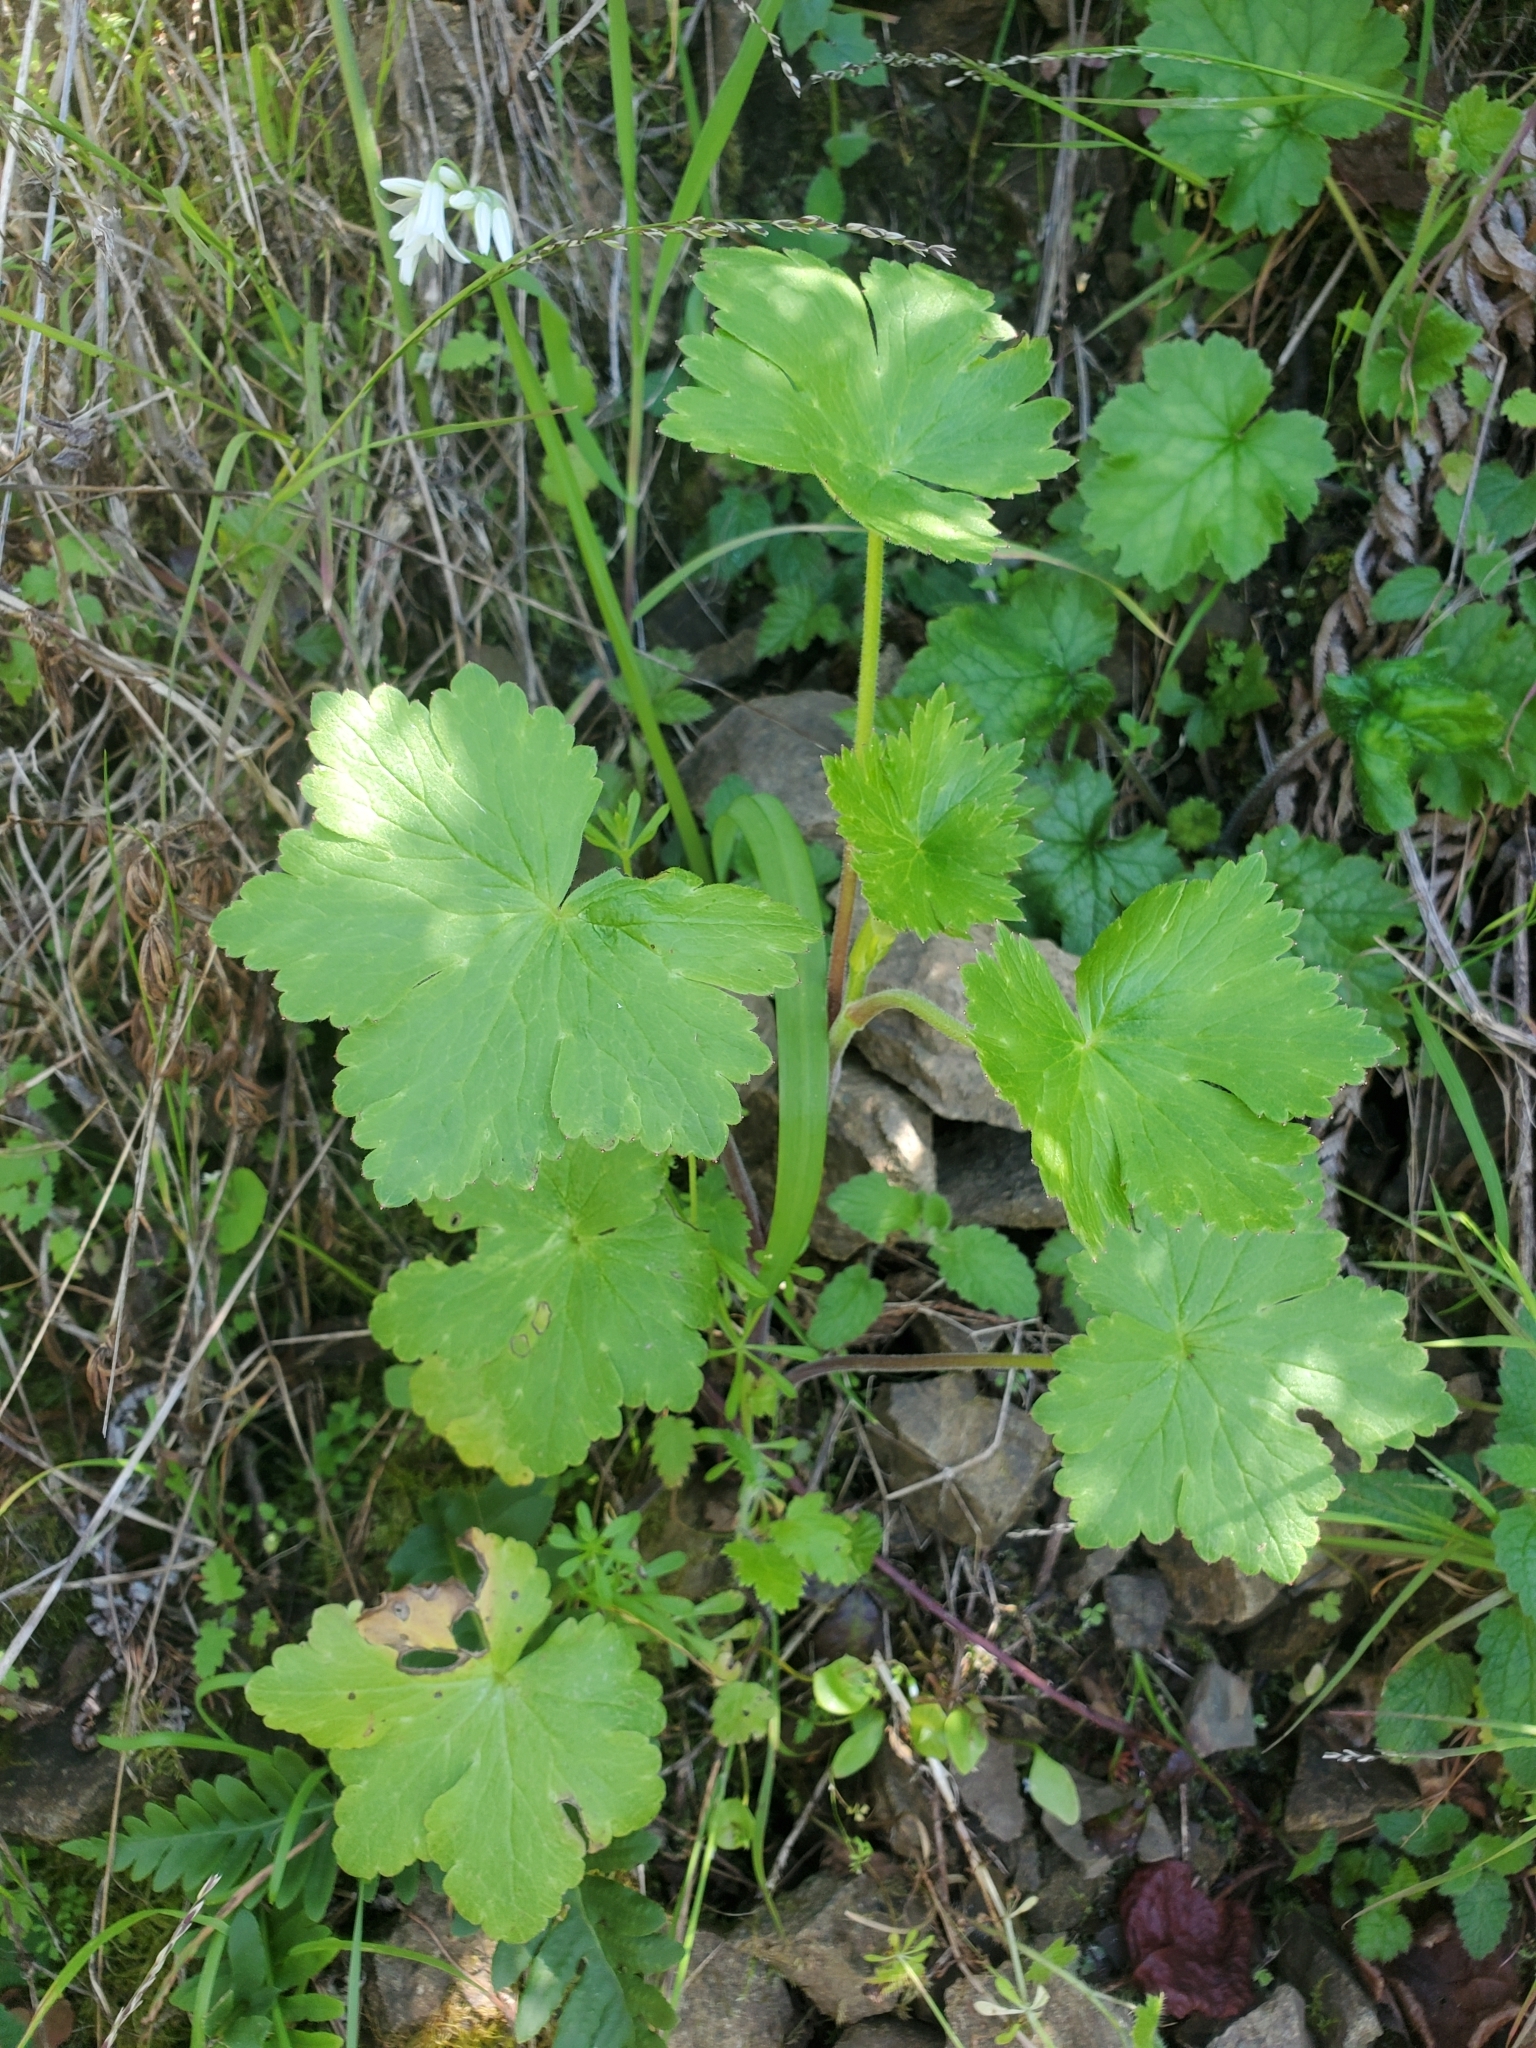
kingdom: Plantae
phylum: Tracheophyta
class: Magnoliopsida
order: Ranunculales
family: Ranunculaceae
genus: Delphinium
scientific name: Delphinium californicum
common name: California larkspur
